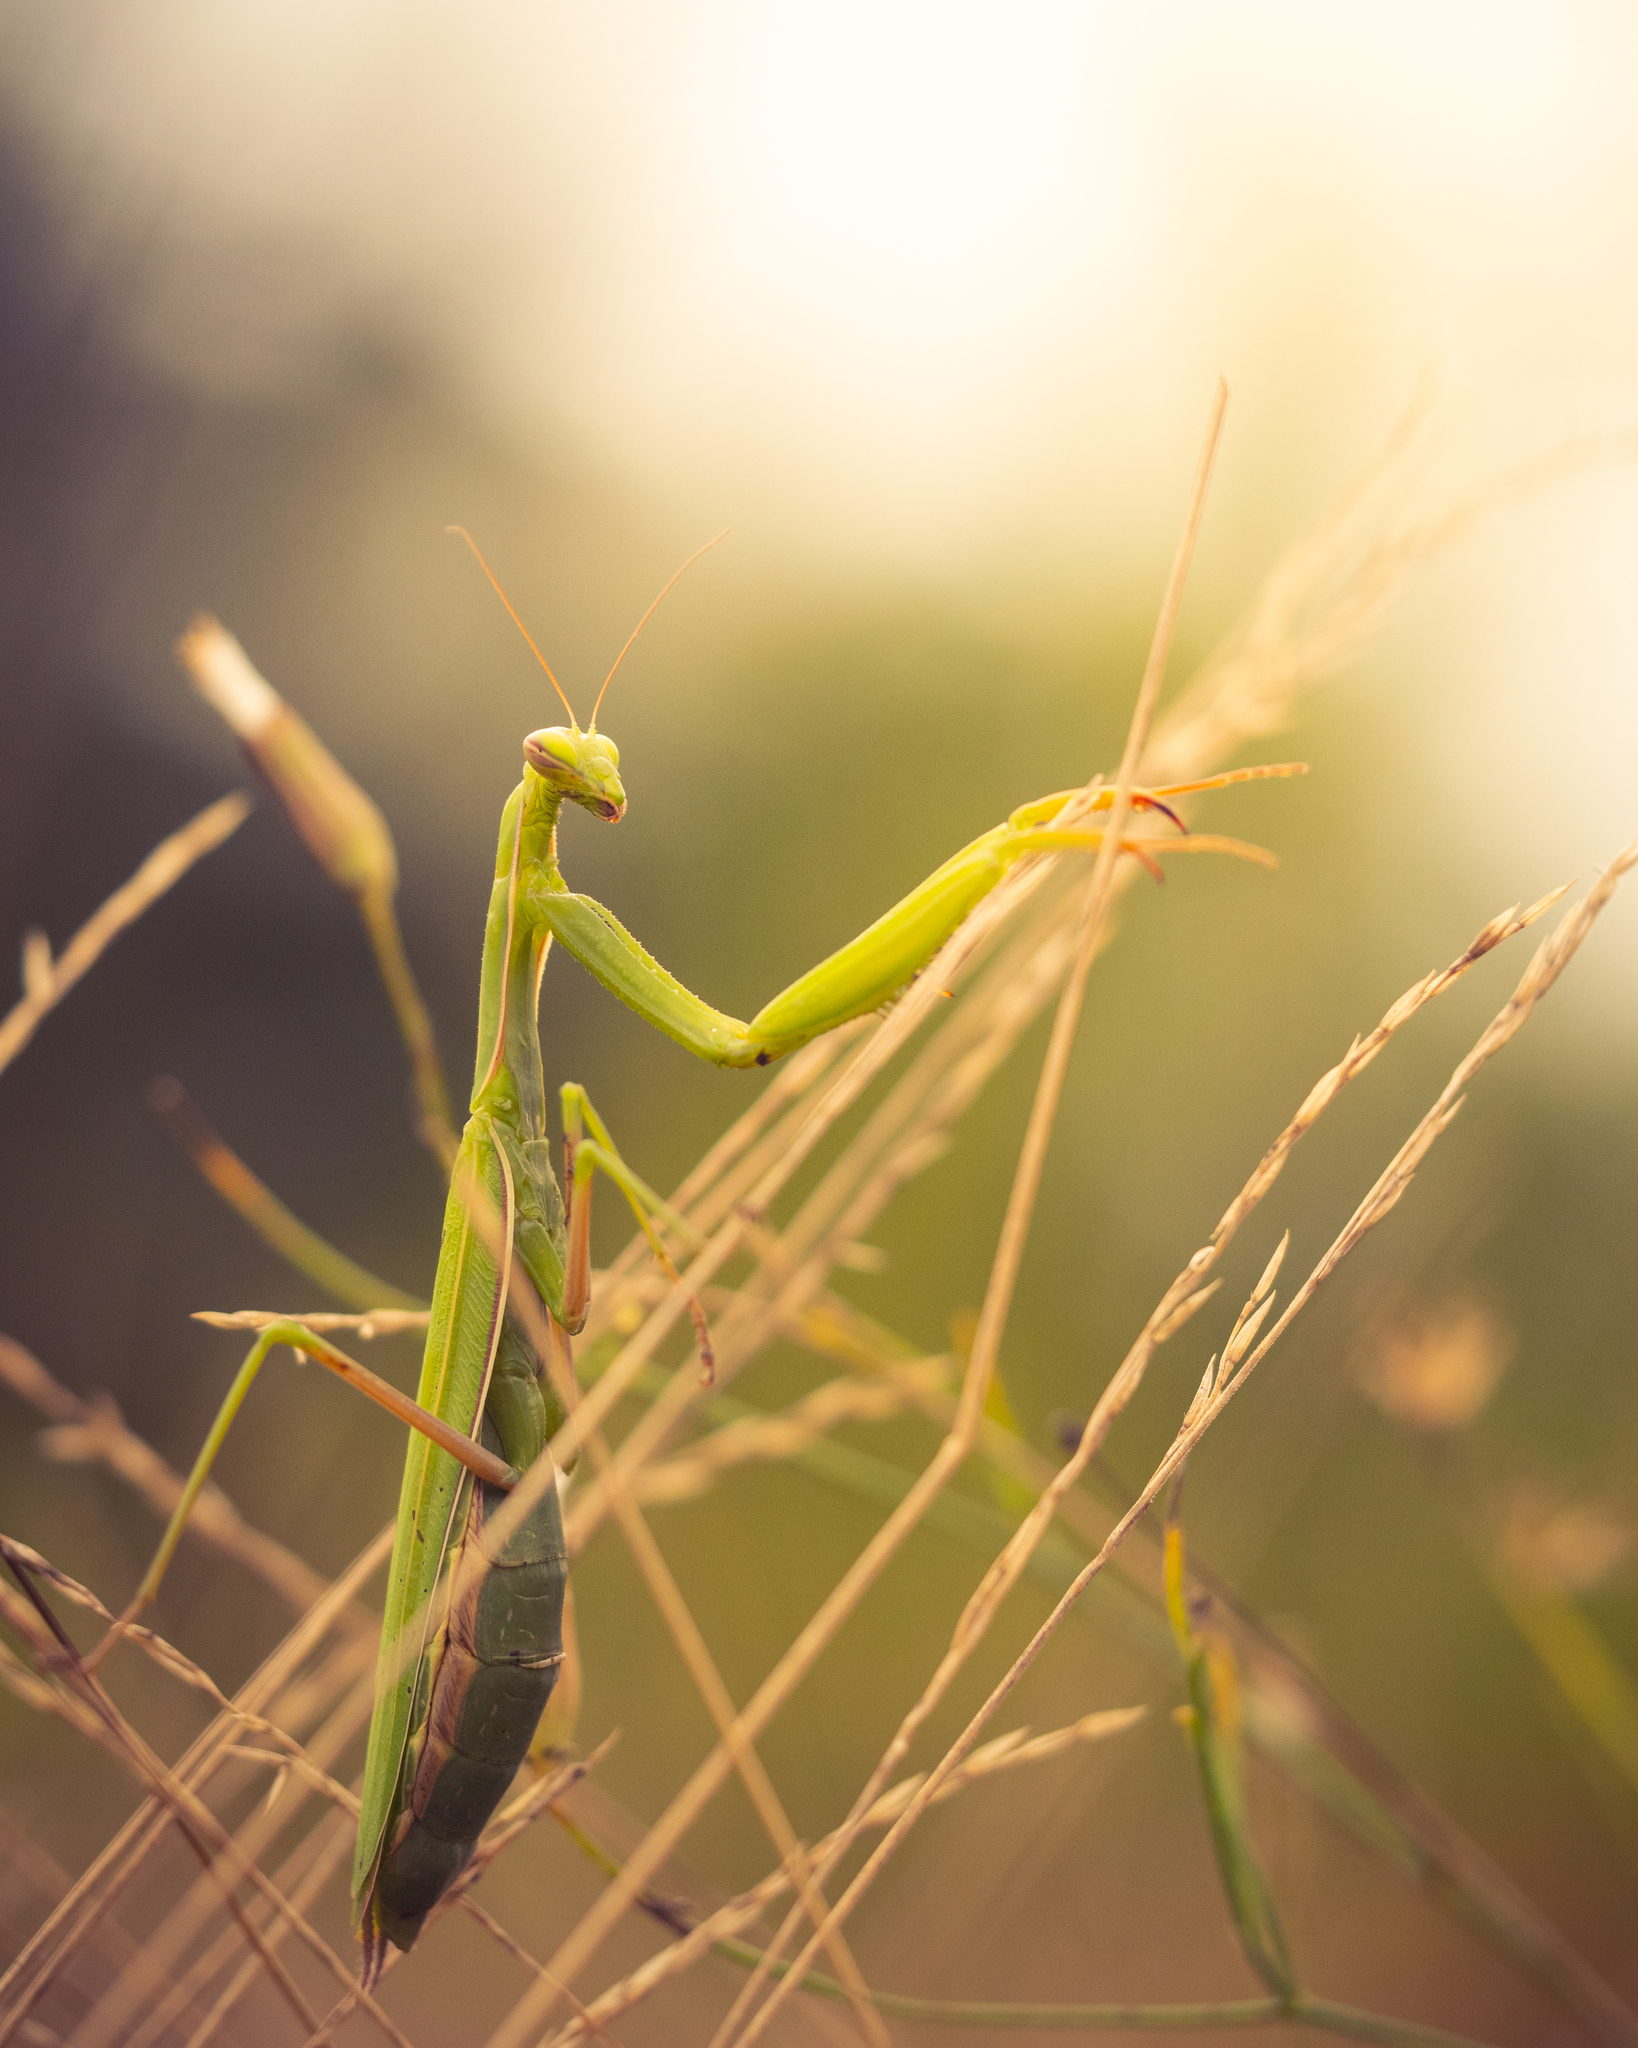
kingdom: Animalia
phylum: Arthropoda
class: Insecta
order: Mantodea
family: Mantidae
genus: Mantis
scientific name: Mantis religiosa
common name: Praying mantis
